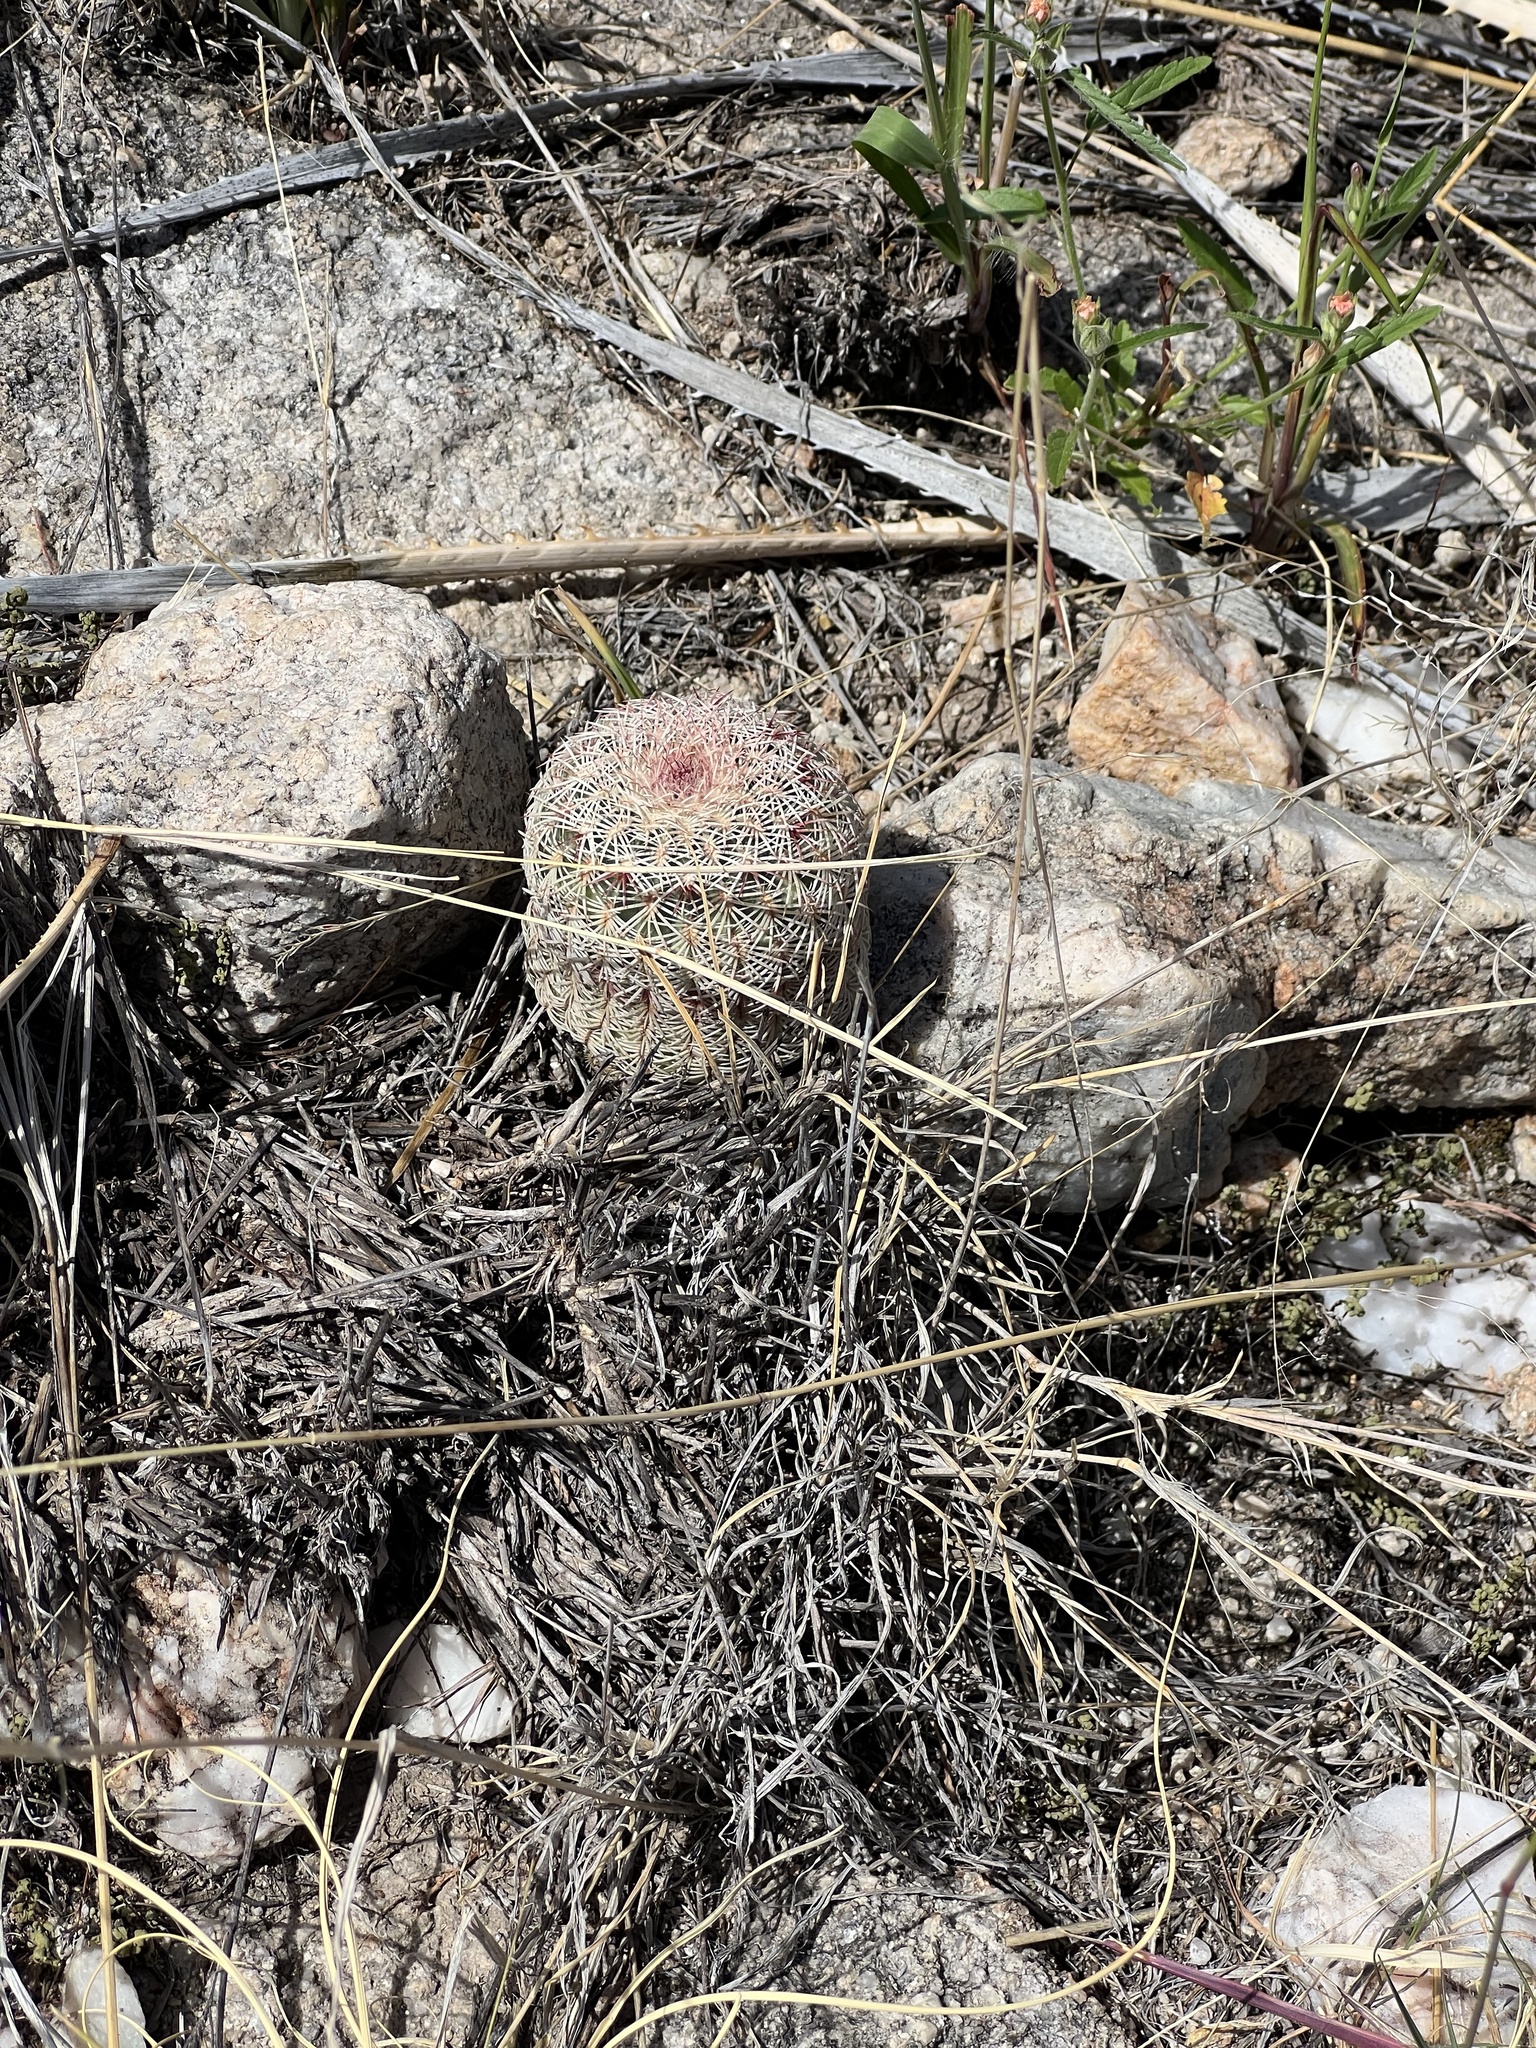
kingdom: Plantae
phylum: Tracheophyta
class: Magnoliopsida
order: Caryophyllales
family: Cactaceae
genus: Echinocereus
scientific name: Echinocereus rigidissimus
